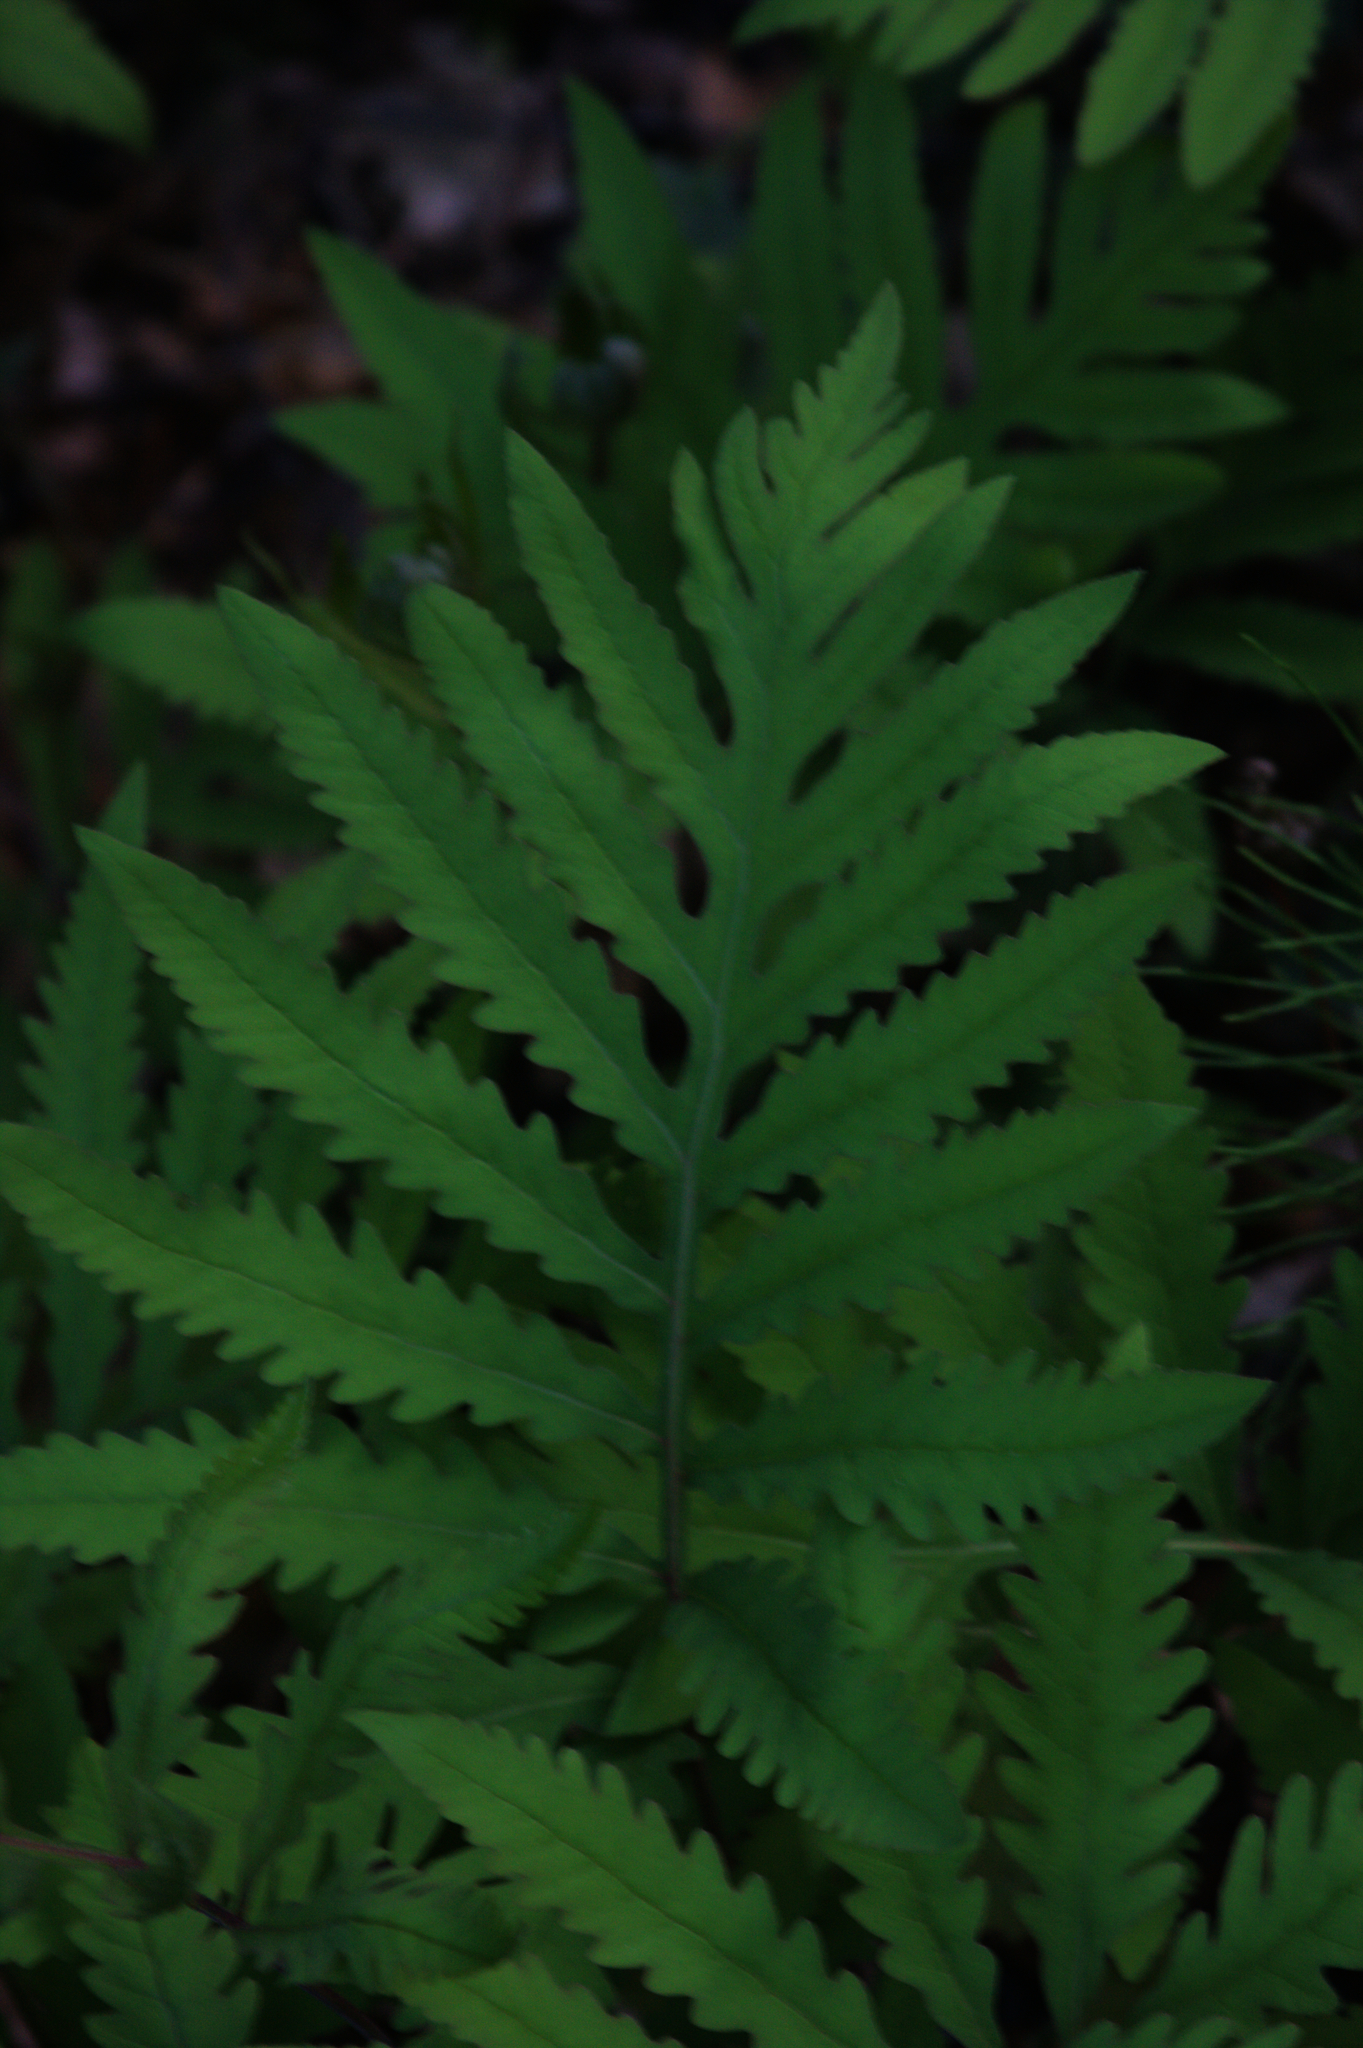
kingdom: Plantae
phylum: Tracheophyta
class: Polypodiopsida
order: Polypodiales
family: Onocleaceae
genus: Onoclea
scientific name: Onoclea sensibilis
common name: Sensitive fern
